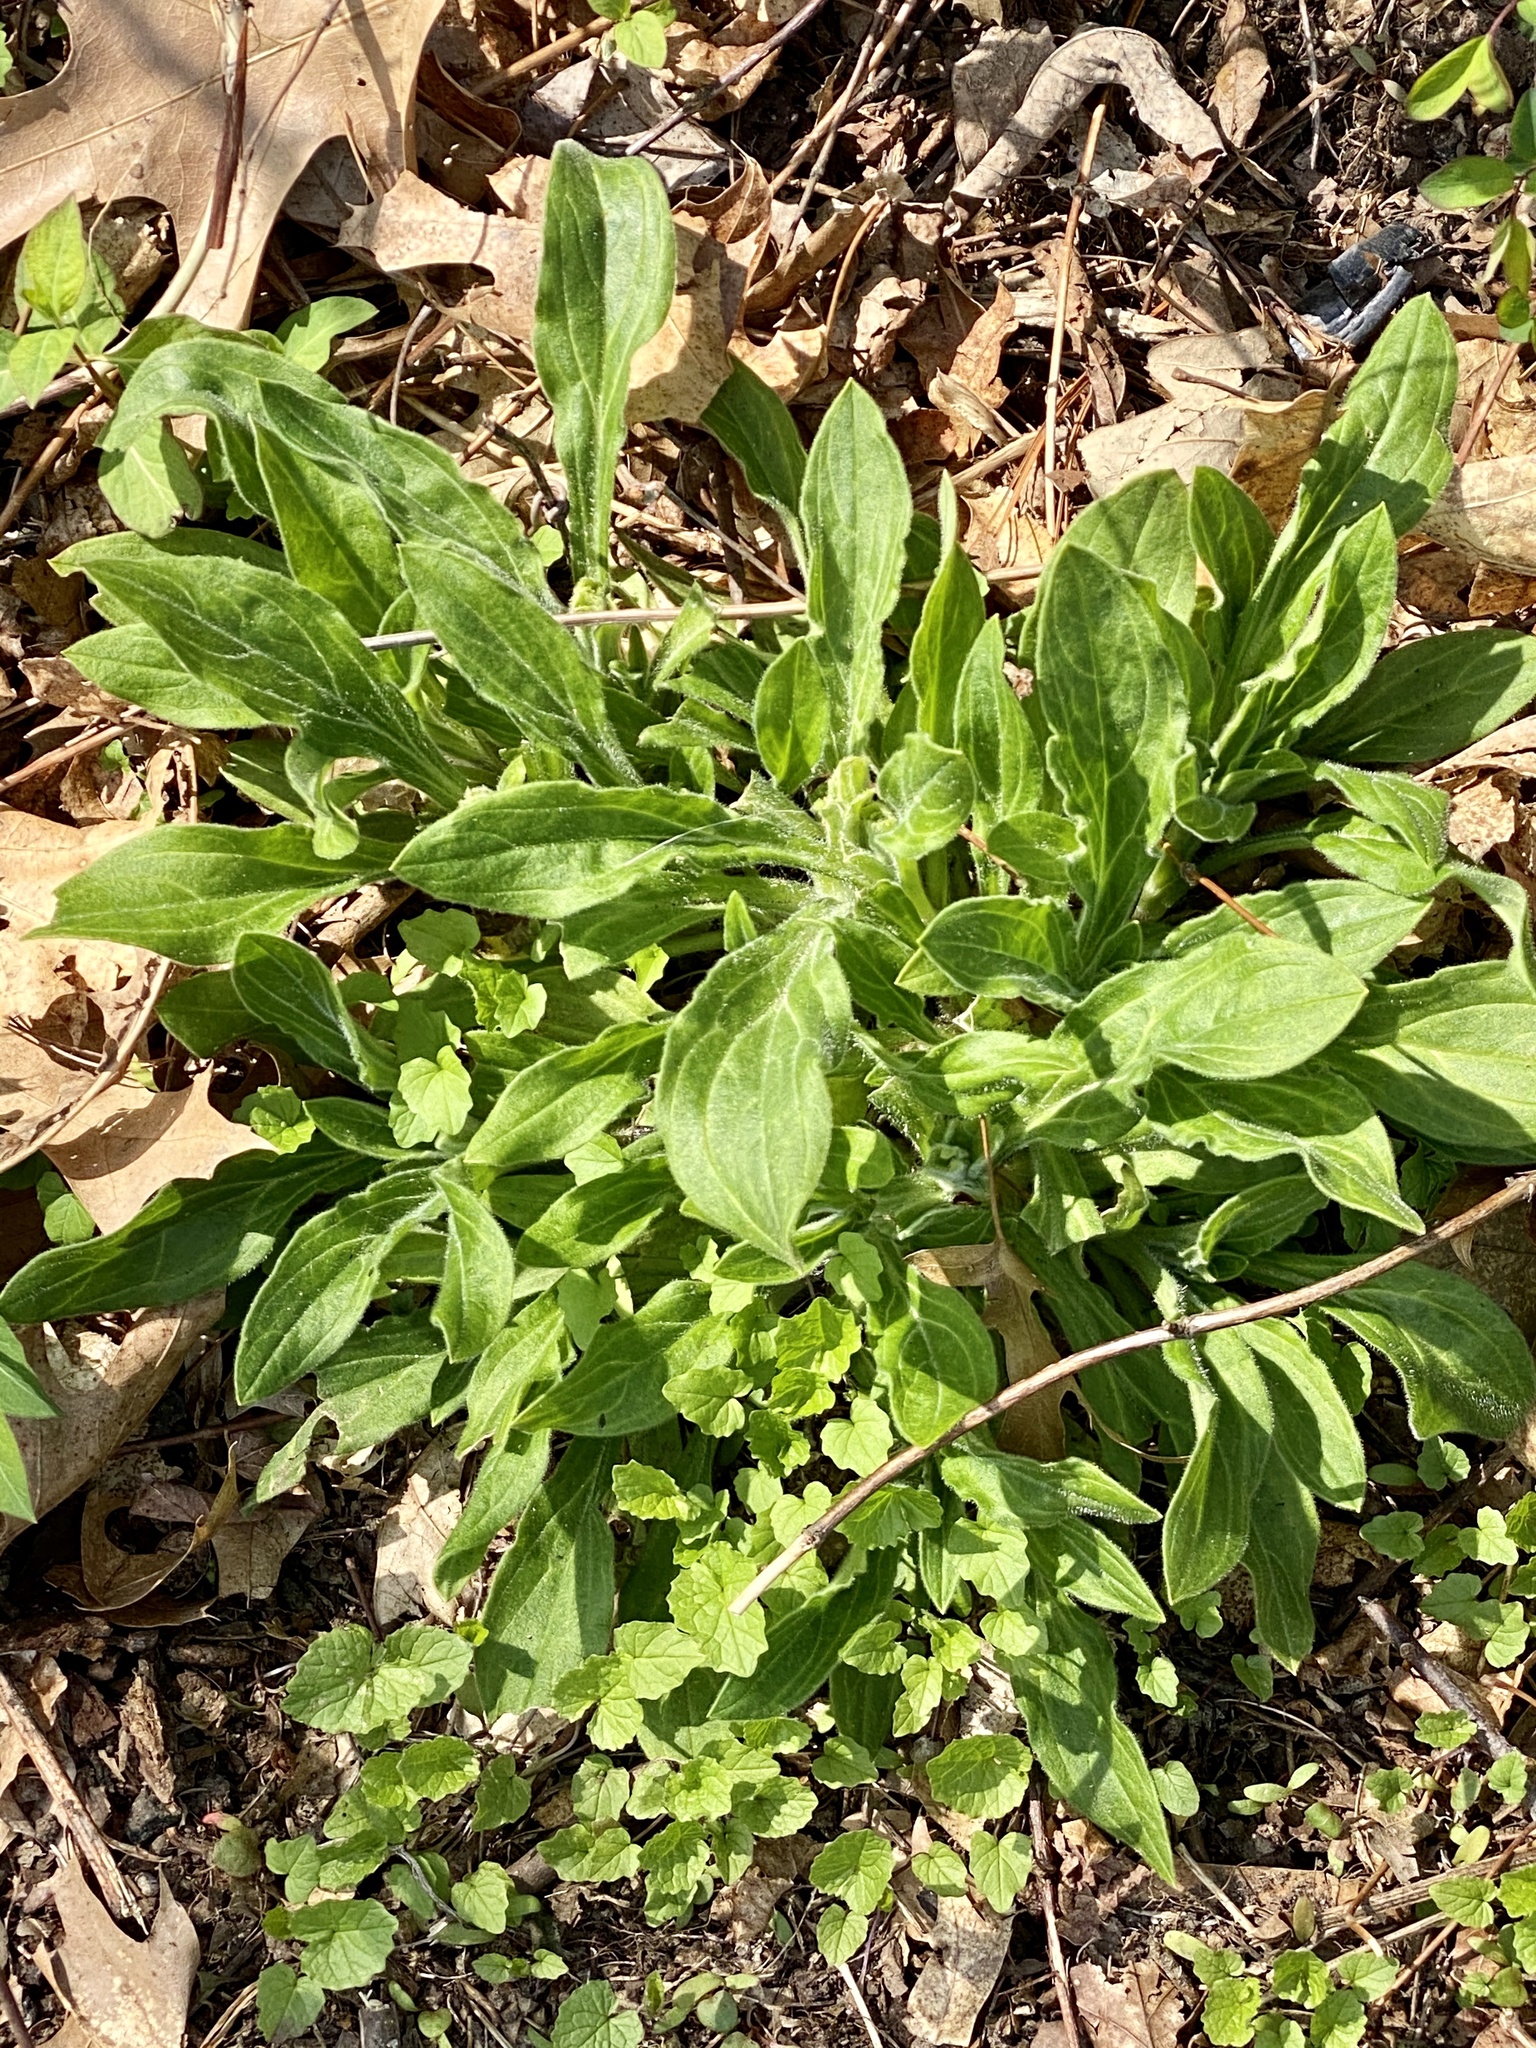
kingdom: Plantae
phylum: Tracheophyta
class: Magnoliopsida
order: Caryophyllales
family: Caryophyllaceae
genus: Silene
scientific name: Silene latifolia
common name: White campion
